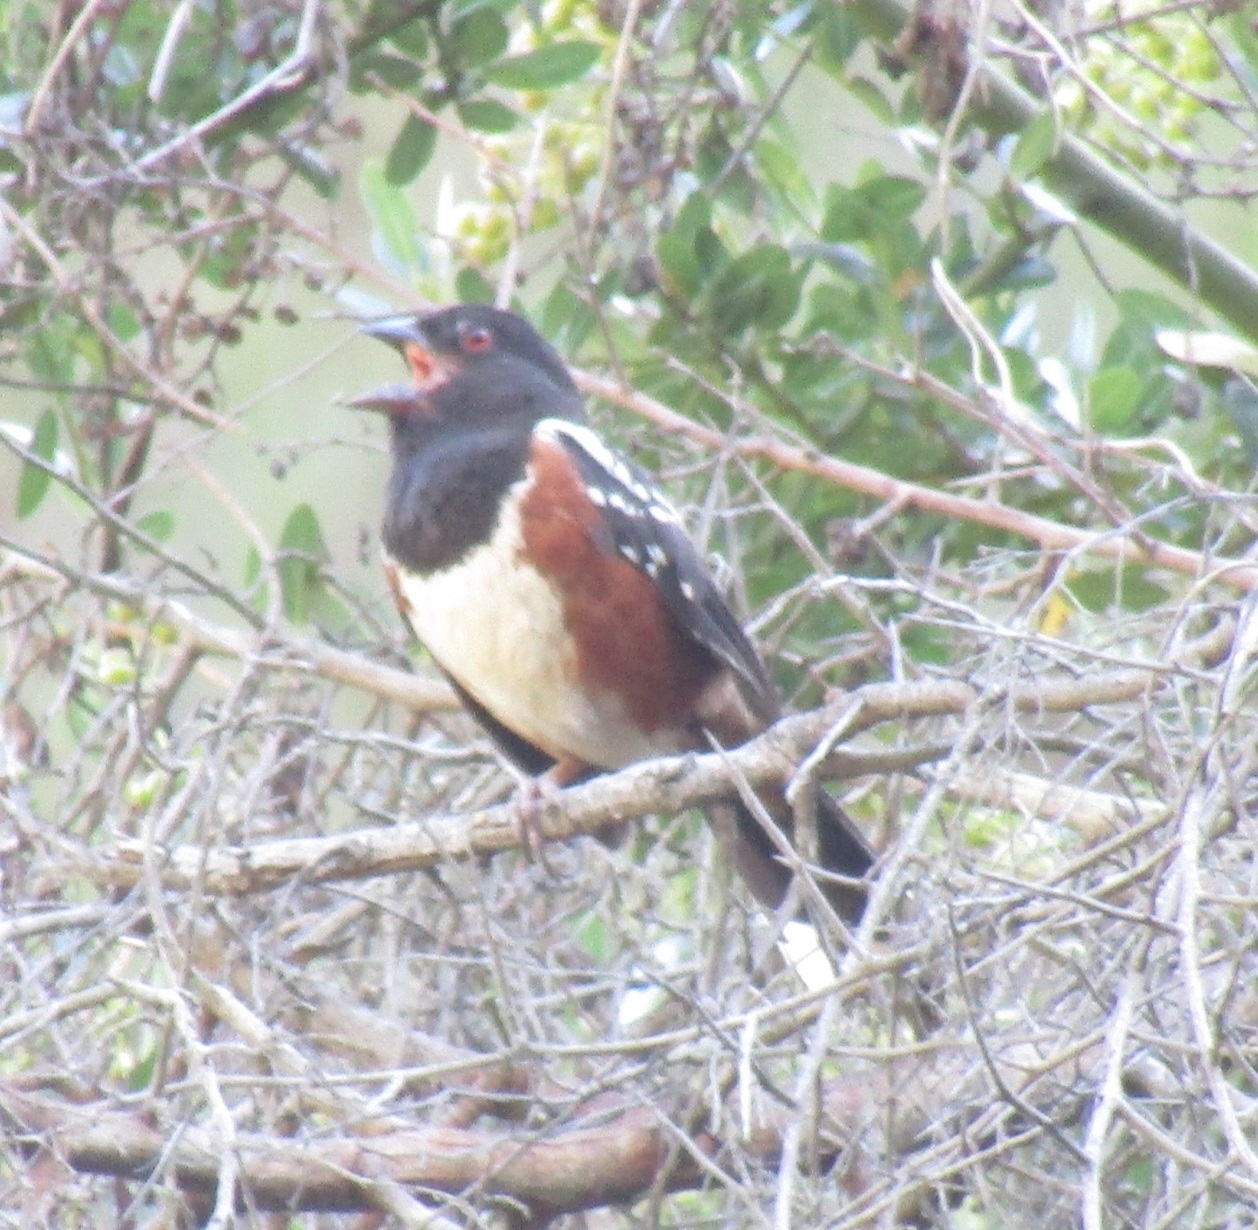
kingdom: Animalia
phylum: Chordata
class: Aves
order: Passeriformes
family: Passerellidae
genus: Pipilo
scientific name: Pipilo maculatus
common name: Spotted towhee
